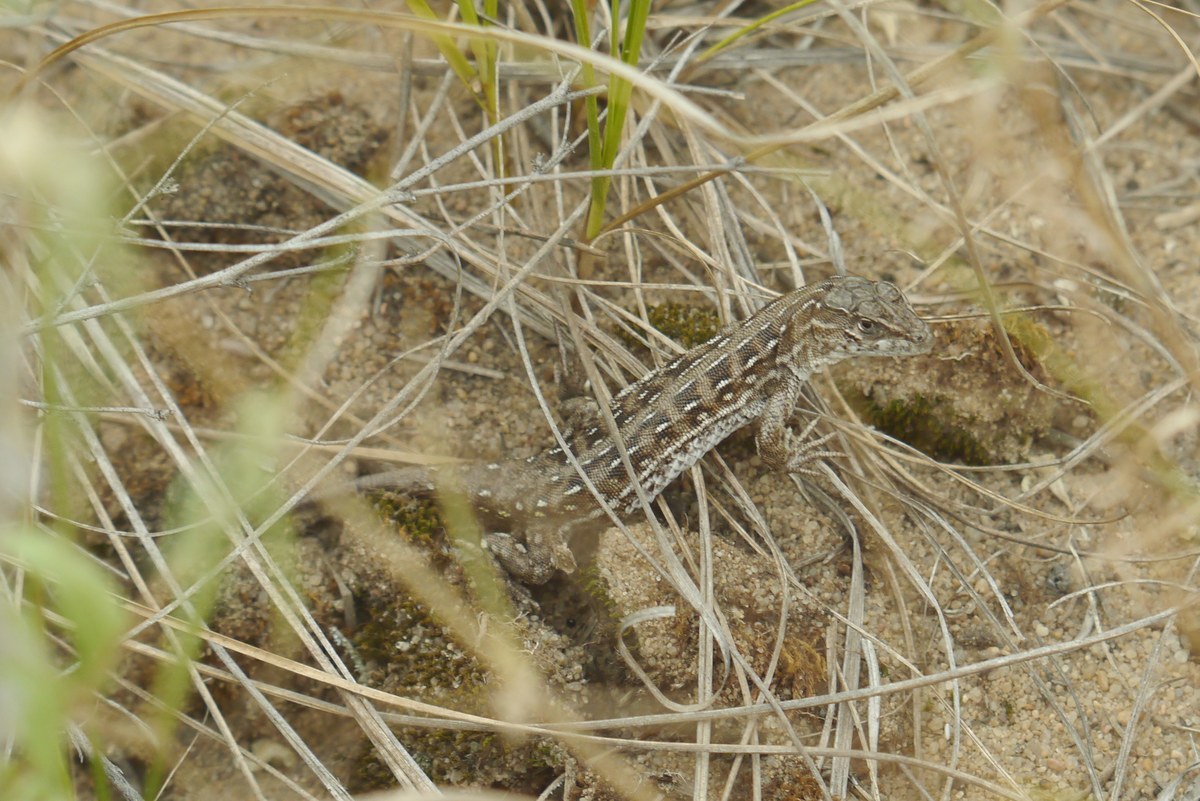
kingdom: Animalia
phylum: Chordata
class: Squamata
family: Lacertidae
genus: Eremias
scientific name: Eremias arguta
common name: Racerunner
